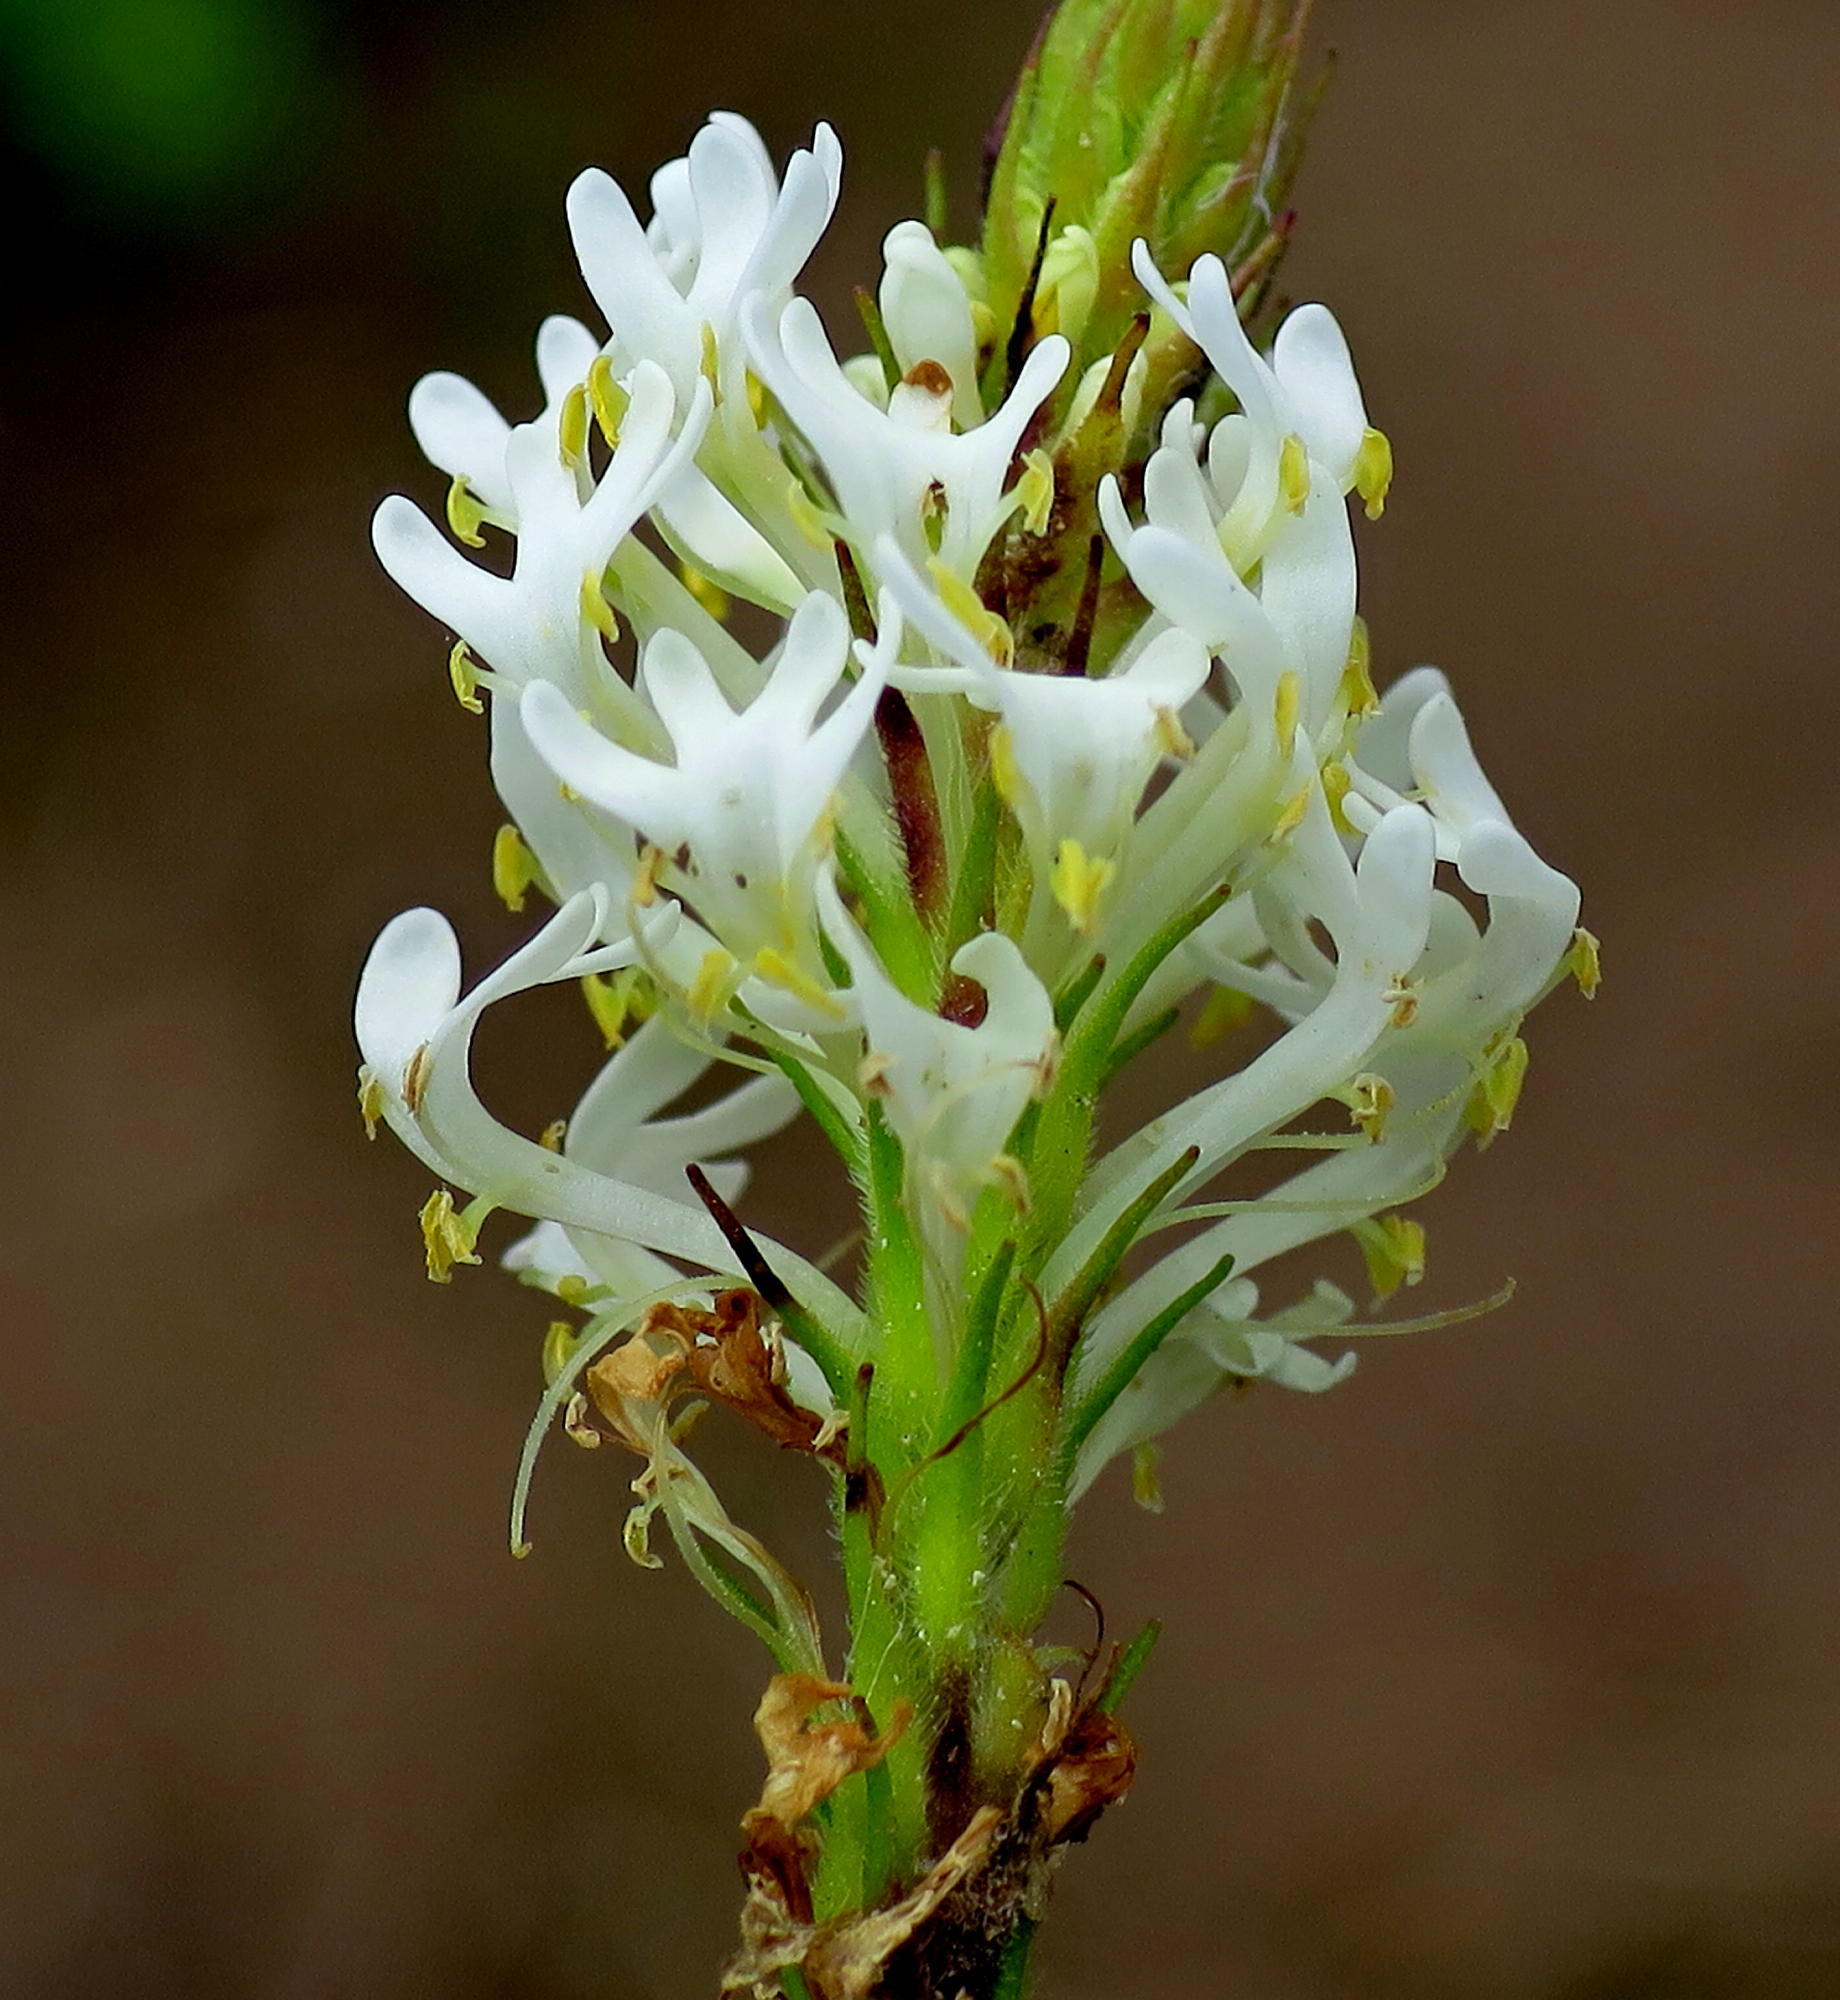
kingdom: Plantae
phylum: Tracheophyta
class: Magnoliopsida
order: Lamiales
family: Scrophulariaceae
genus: Dischisma
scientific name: Dischisma ciliatum
